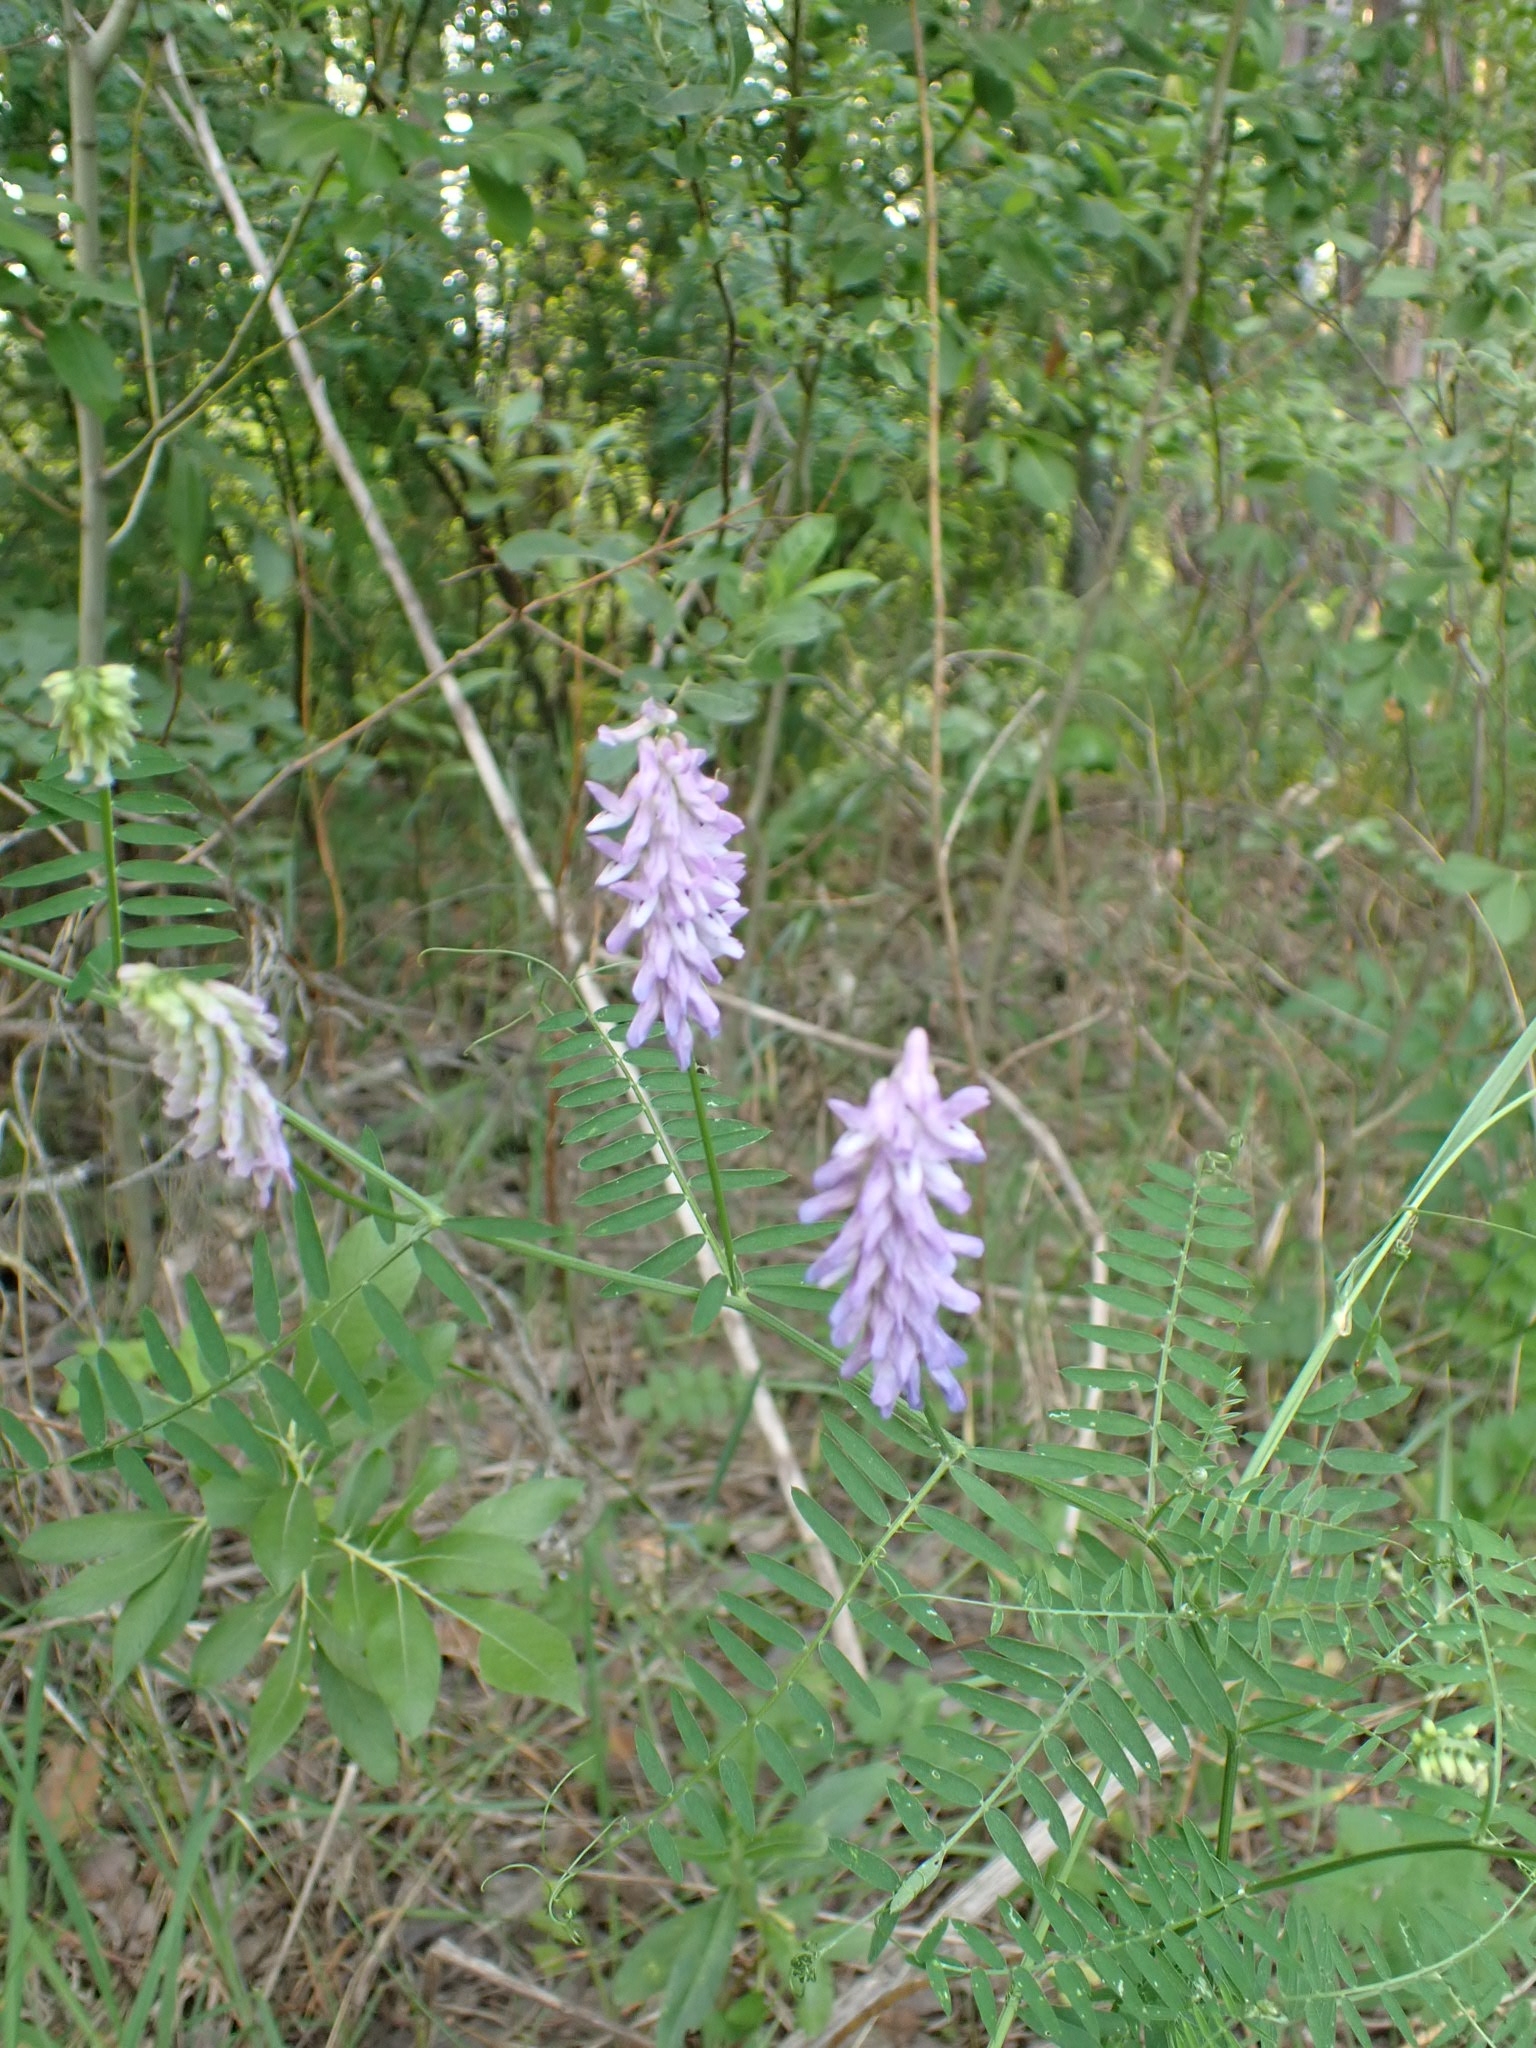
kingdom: Plantae
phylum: Tracheophyta
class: Magnoliopsida
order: Fabales
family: Fabaceae
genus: Vicia
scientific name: Vicia cracca
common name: Bird vetch
